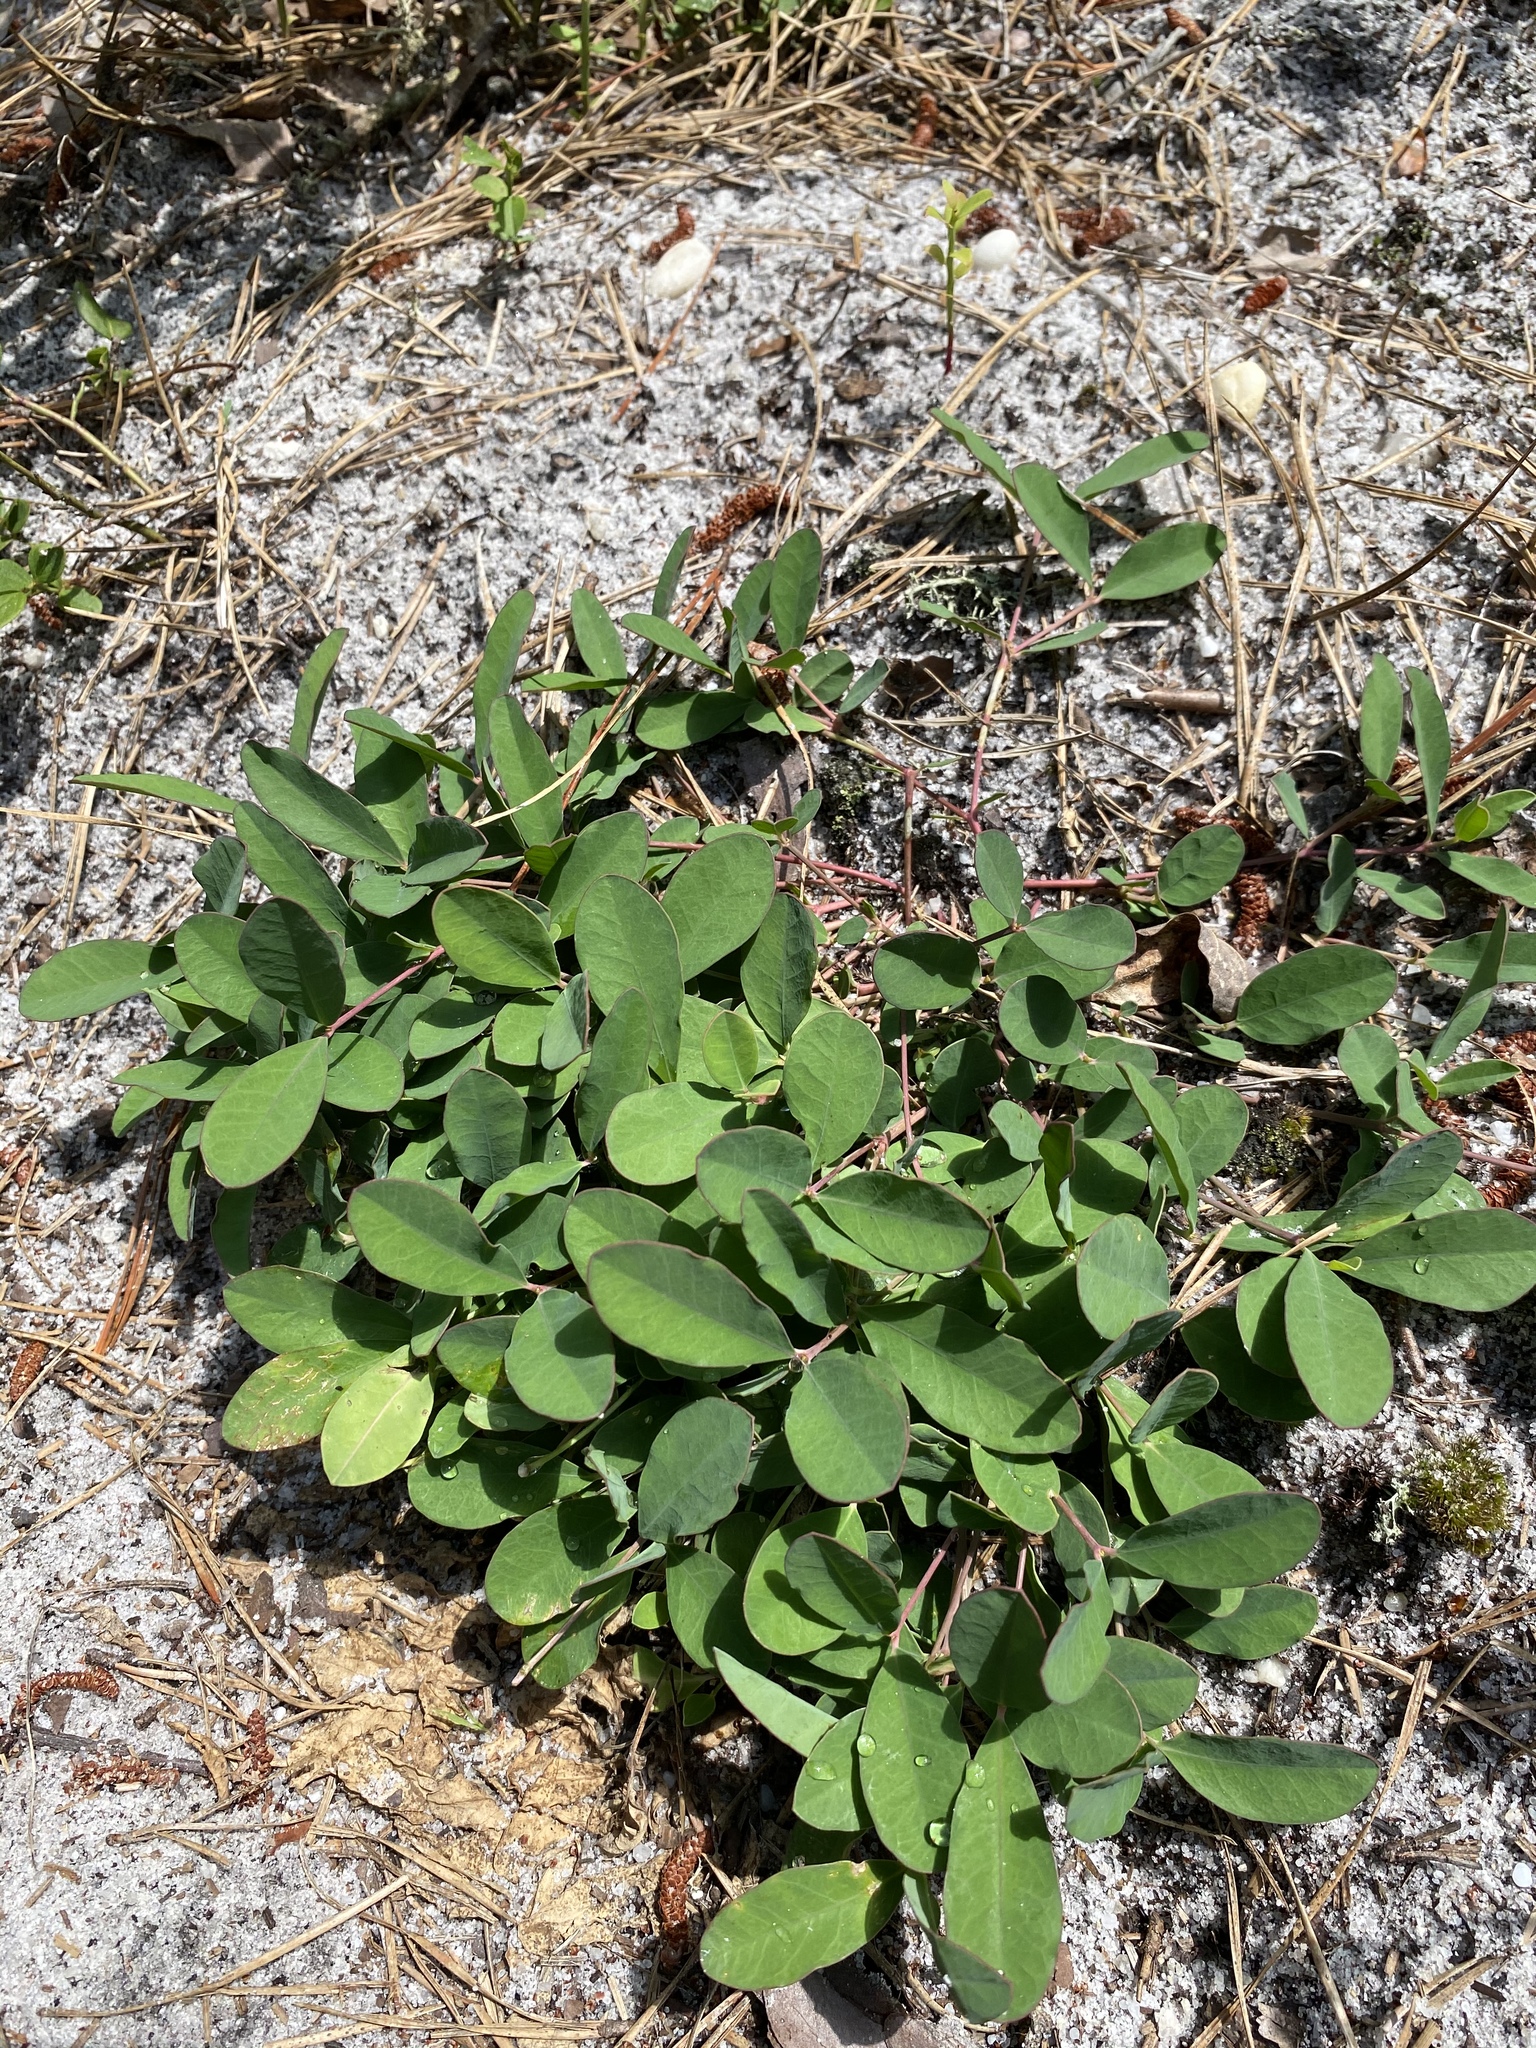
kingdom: Plantae
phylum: Tracheophyta
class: Magnoliopsida
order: Malpighiales
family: Euphorbiaceae
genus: Euphorbia
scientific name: Euphorbia ipecacuanhae
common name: Carolina ipecac
